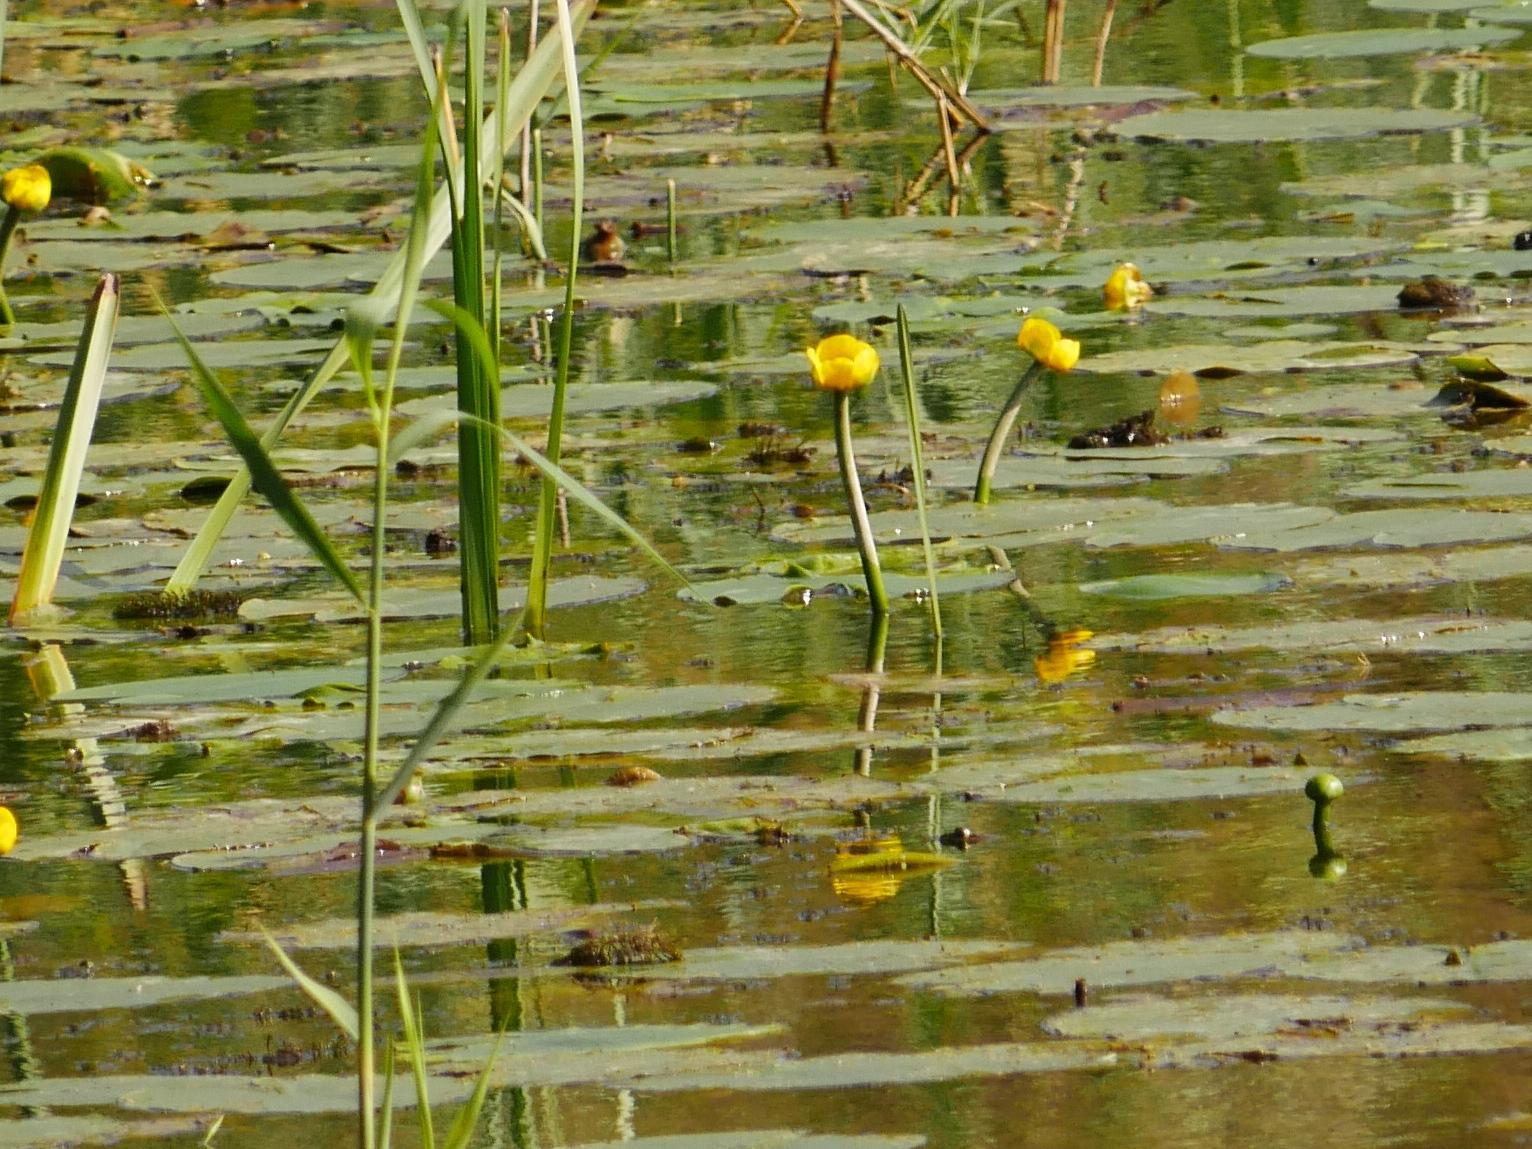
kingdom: Plantae
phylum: Tracheophyta
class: Magnoliopsida
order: Nymphaeales
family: Nymphaeaceae
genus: Nuphar
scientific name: Nuphar lutea
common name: Yellow water-lily
